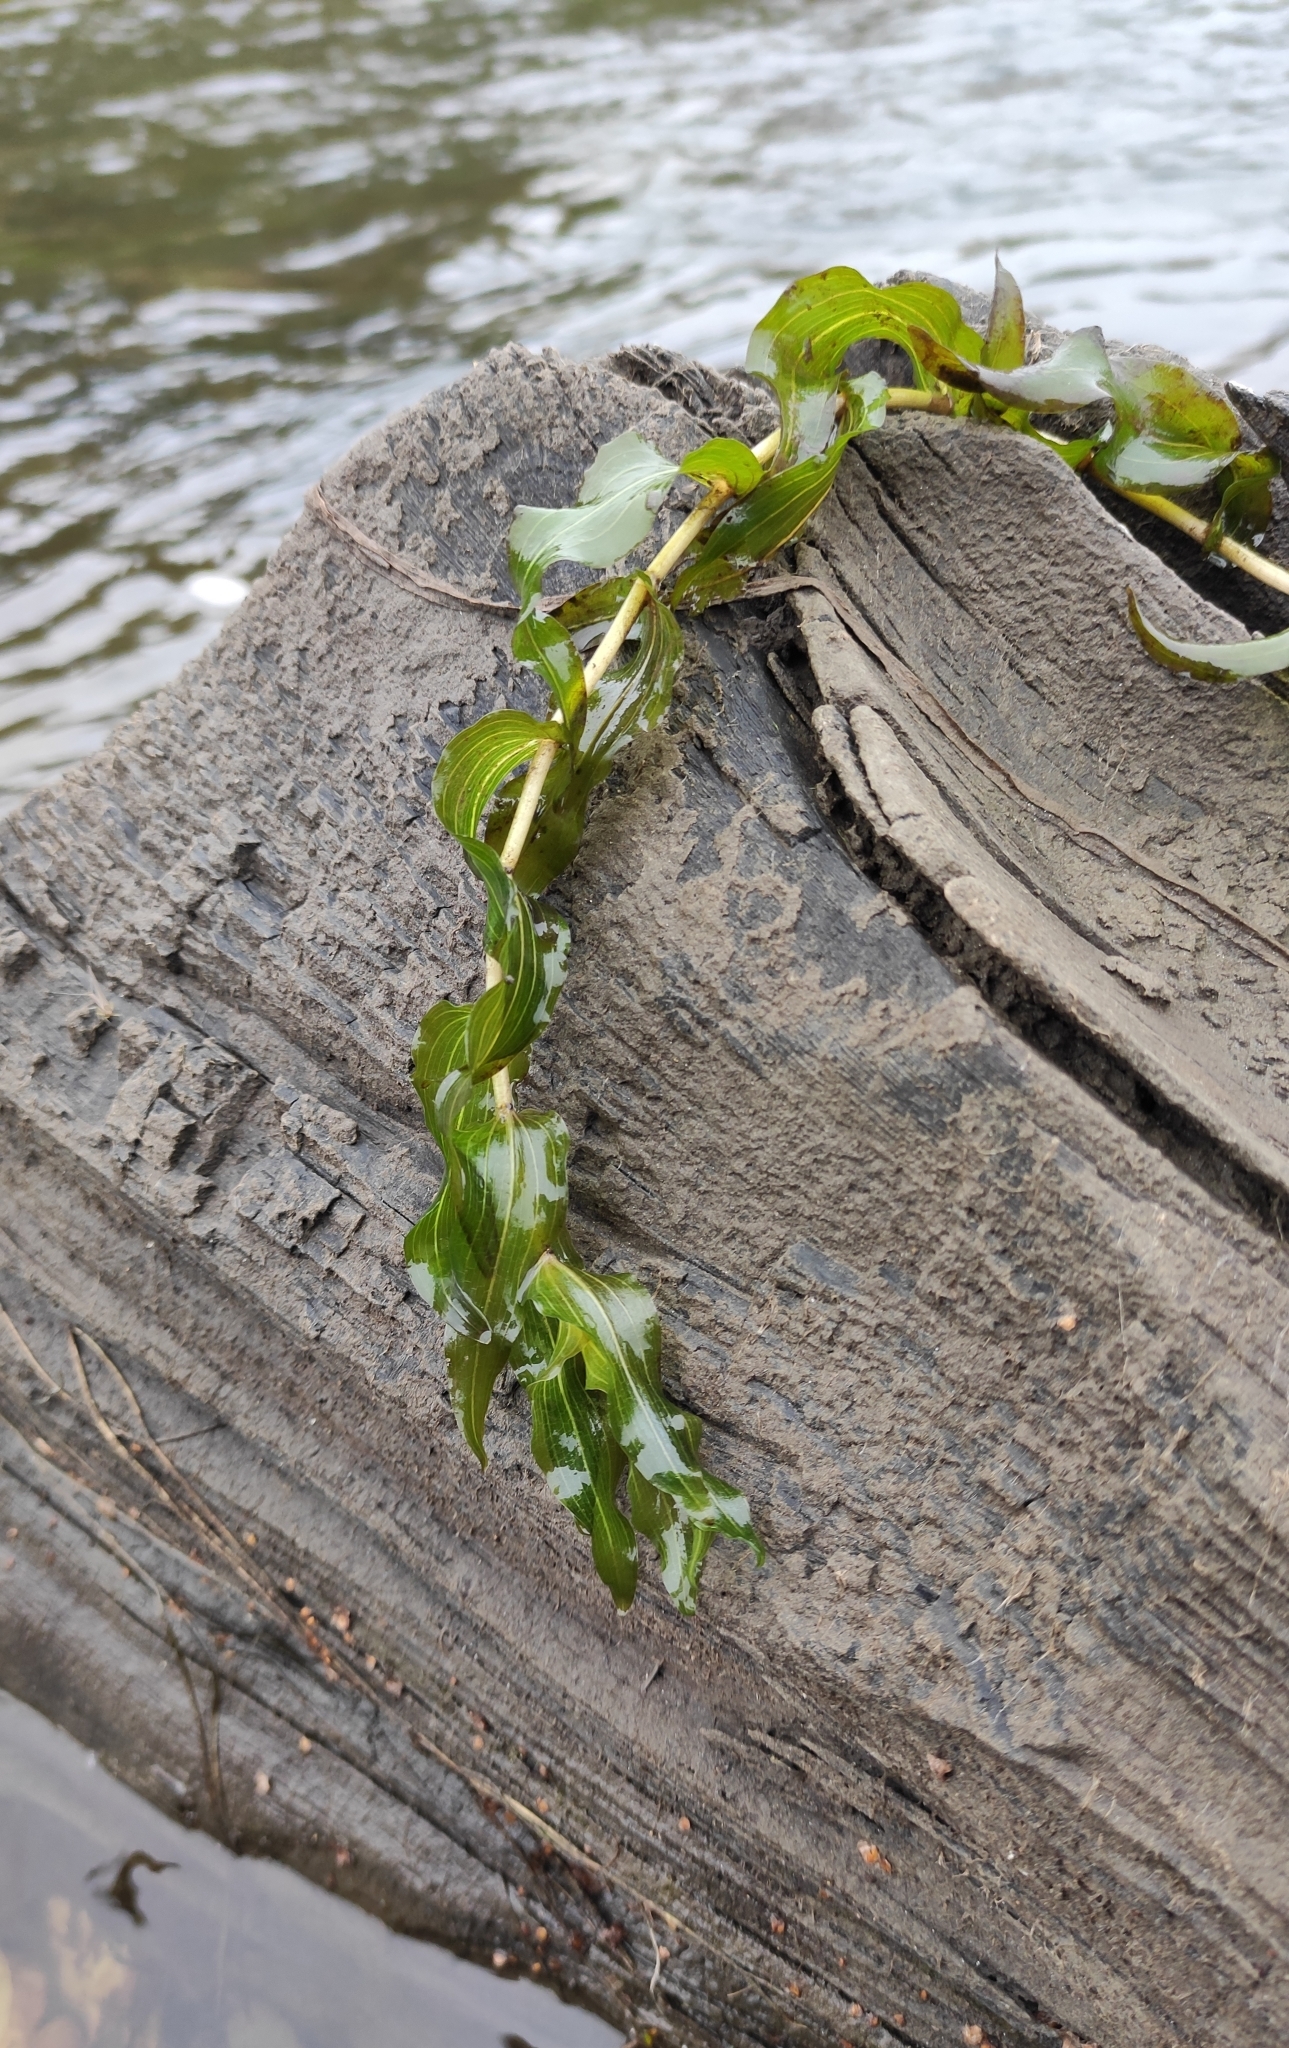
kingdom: Plantae
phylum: Tracheophyta
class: Liliopsida
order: Alismatales
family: Potamogetonaceae
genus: Potamogeton
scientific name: Potamogeton perfoliatus
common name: Perfoliate pondweed
